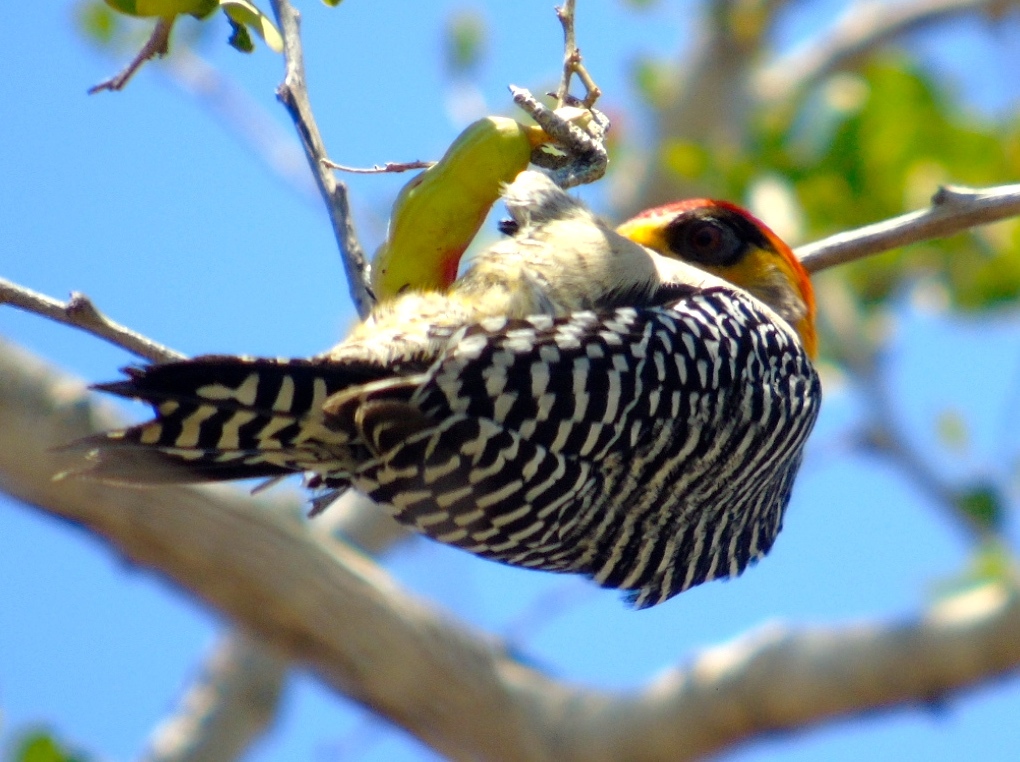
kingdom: Animalia
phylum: Chordata
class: Aves
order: Piciformes
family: Picidae
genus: Melanerpes
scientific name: Melanerpes chrysogenys
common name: Golden-cheeked woodpecker
